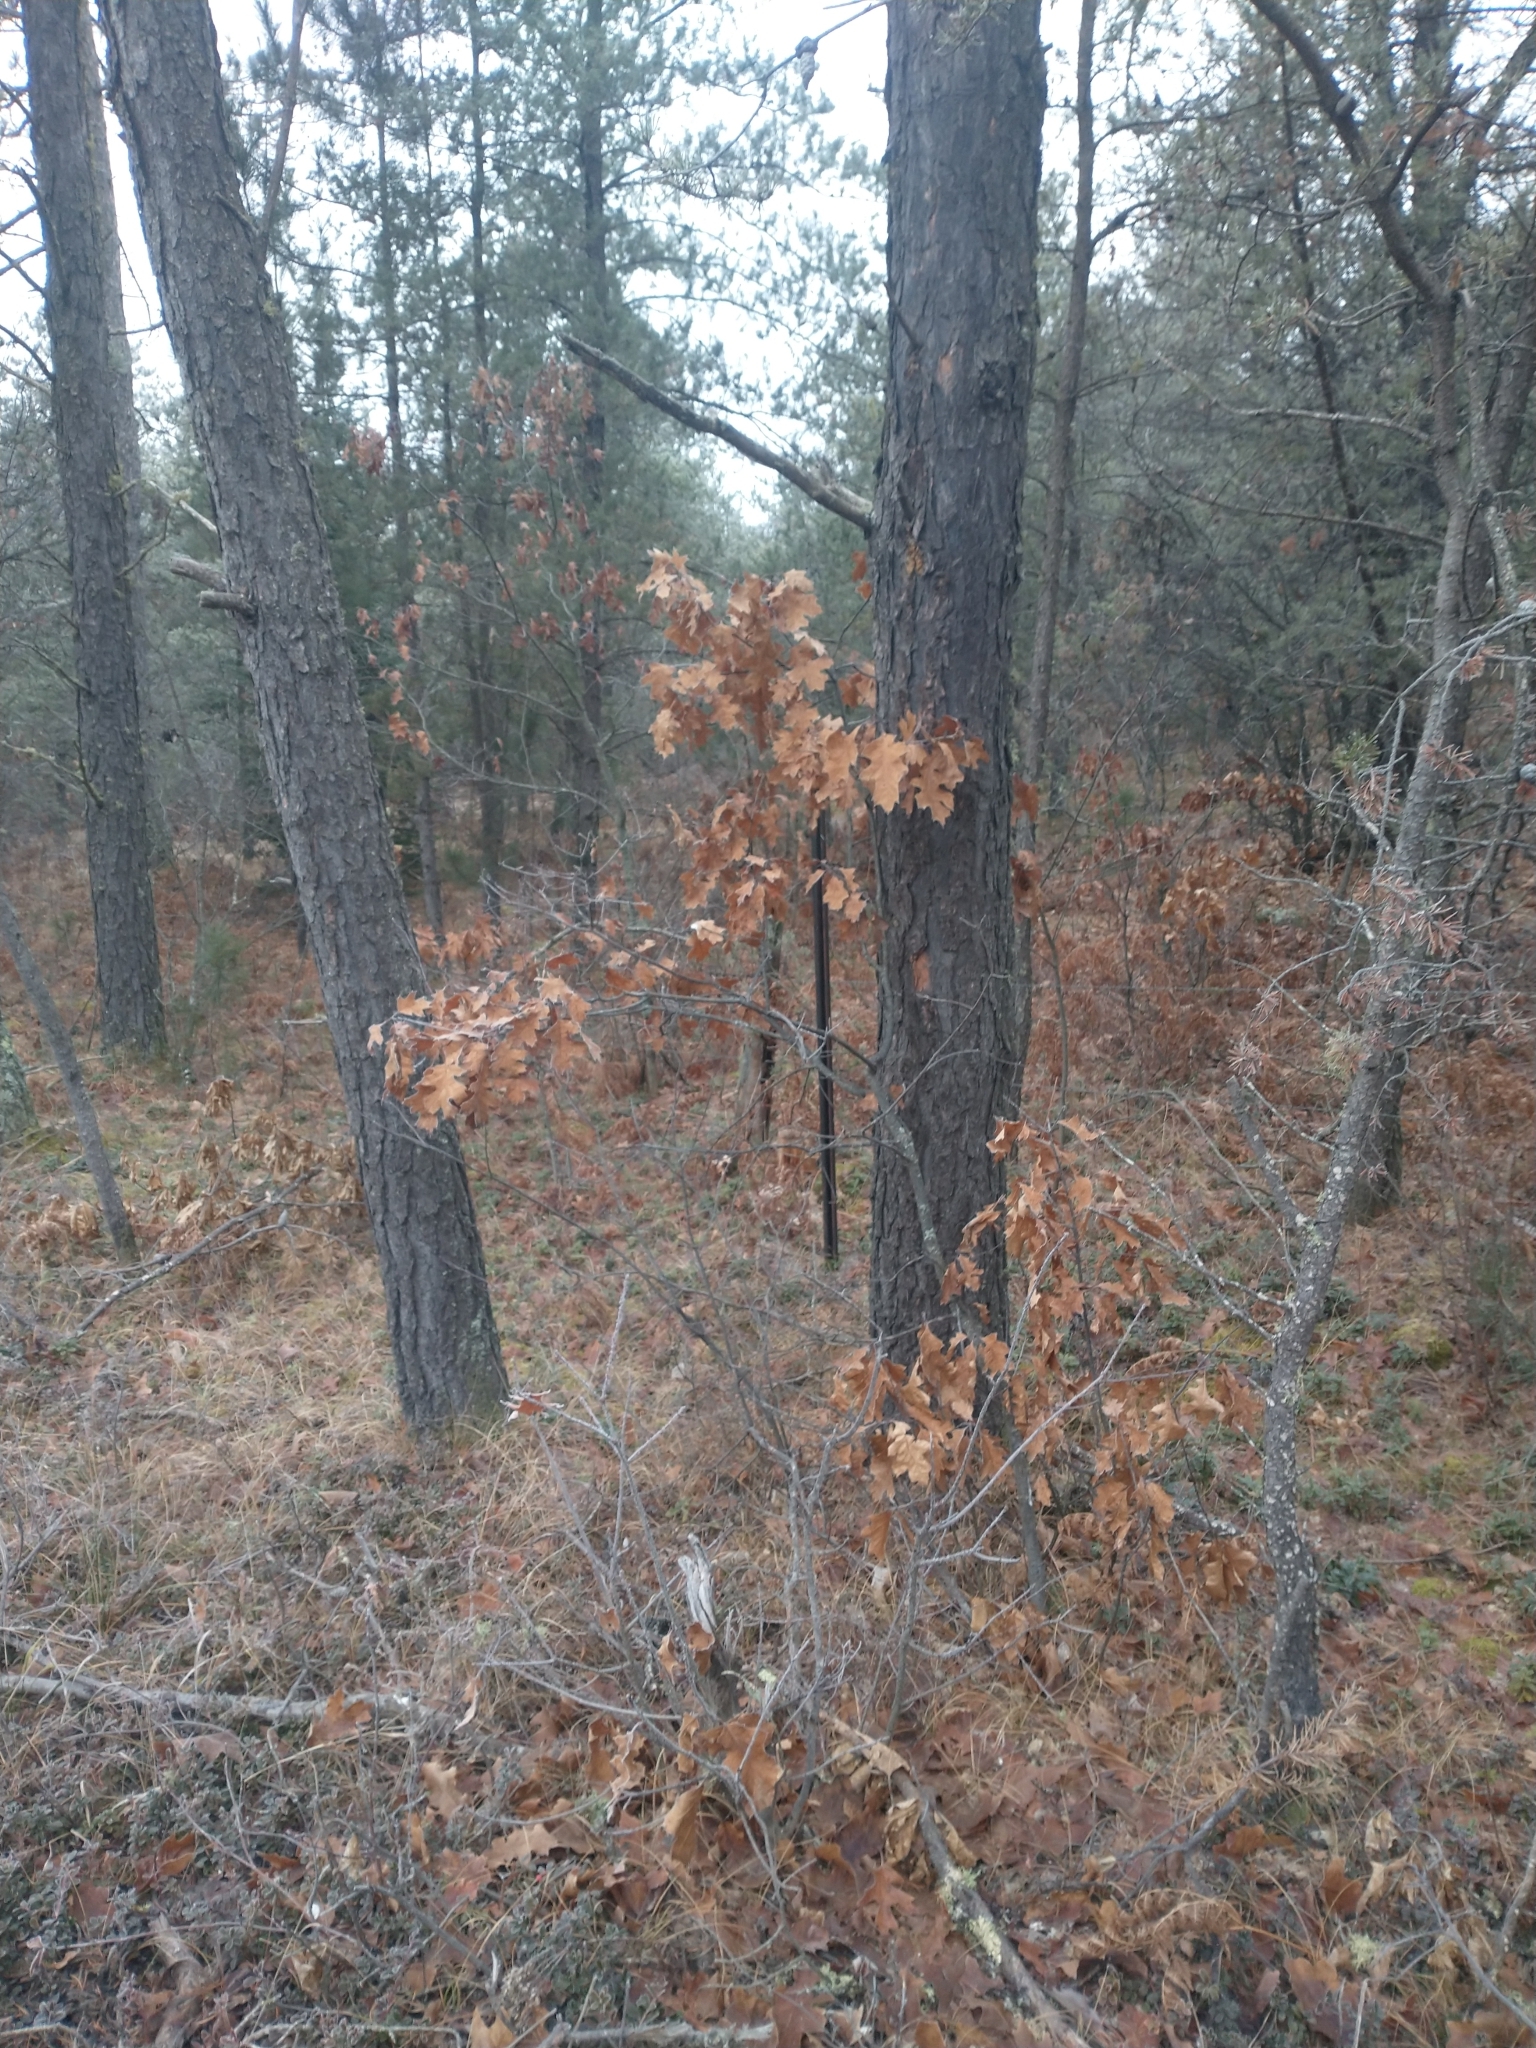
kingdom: Plantae
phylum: Tracheophyta
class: Magnoliopsida
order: Fagales
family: Fagaceae
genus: Quercus
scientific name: Quercus rubra
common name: Red oak
